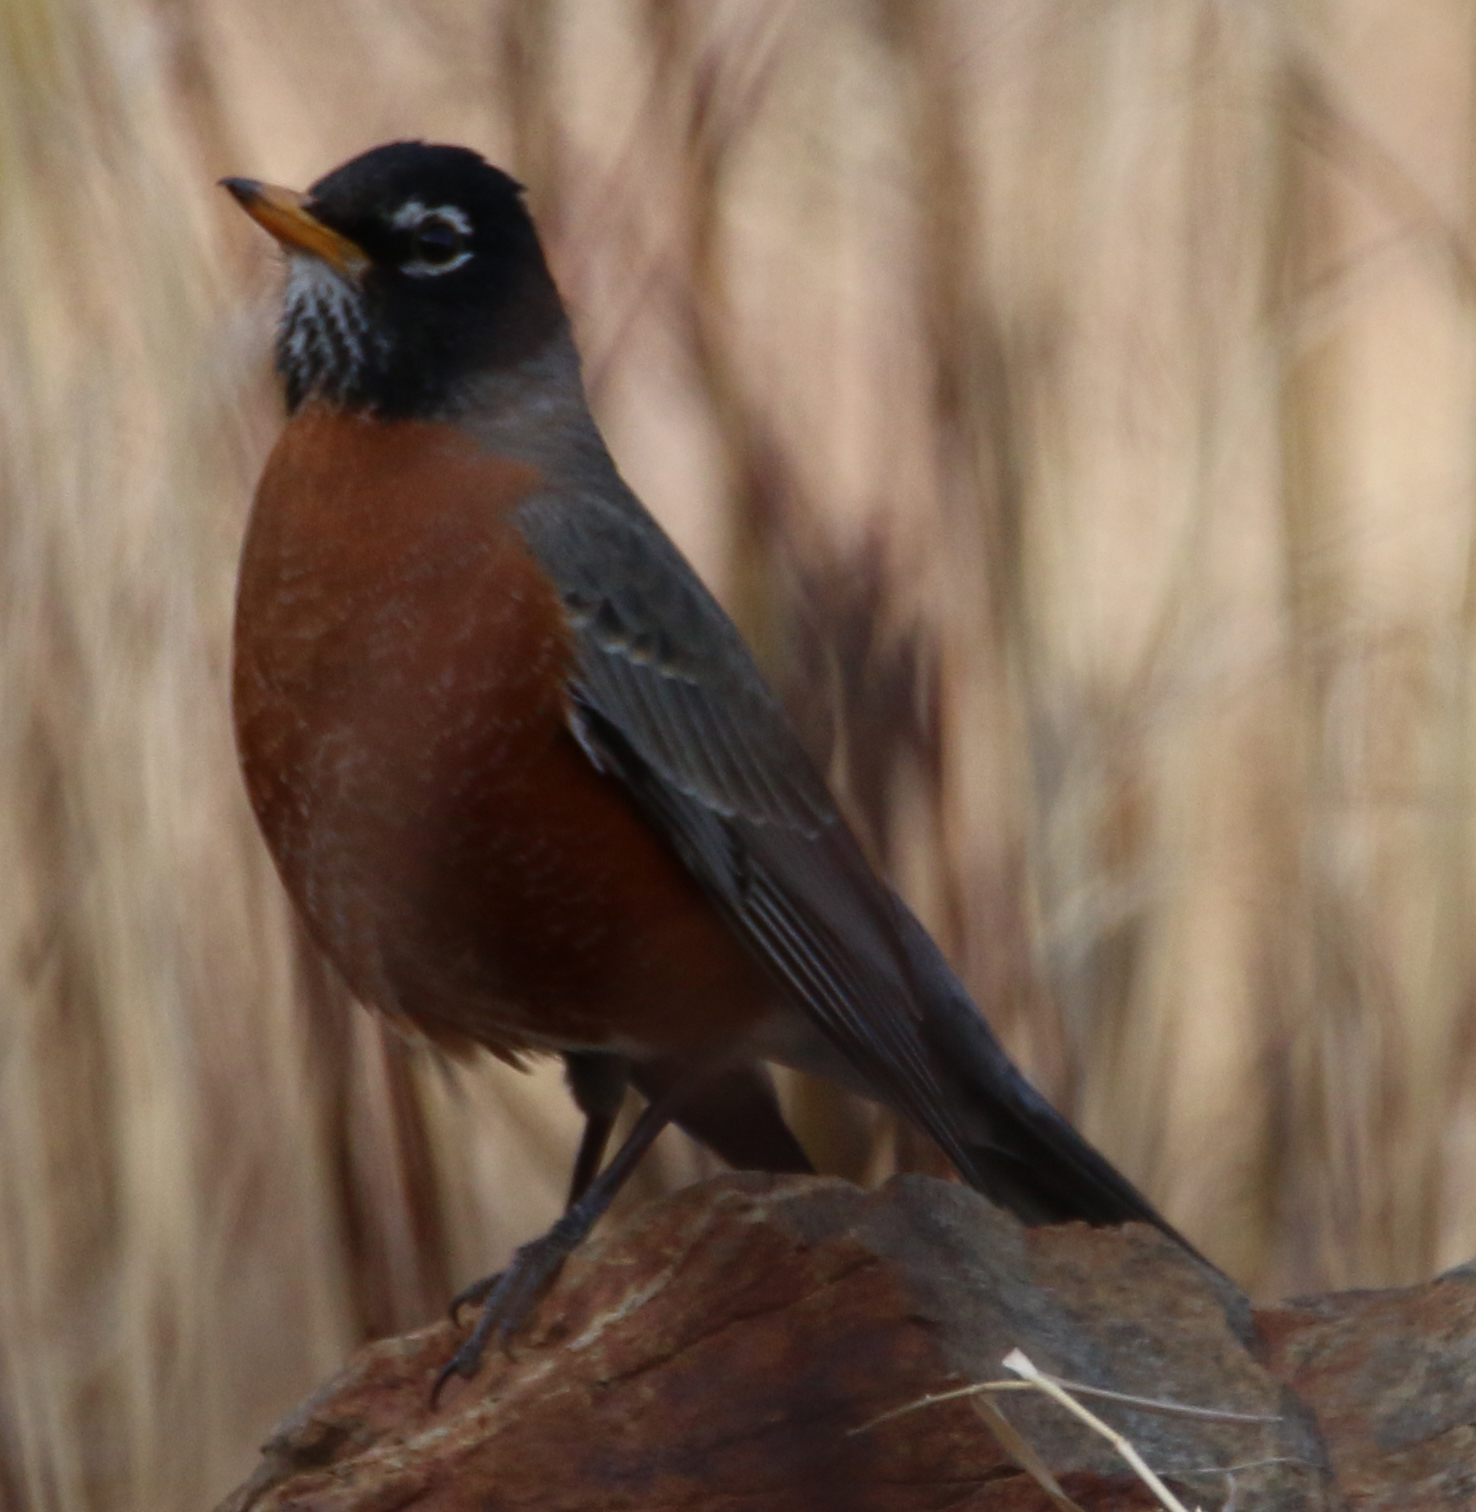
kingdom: Animalia
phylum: Chordata
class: Aves
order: Passeriformes
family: Turdidae
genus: Turdus
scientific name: Turdus migratorius
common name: American robin
